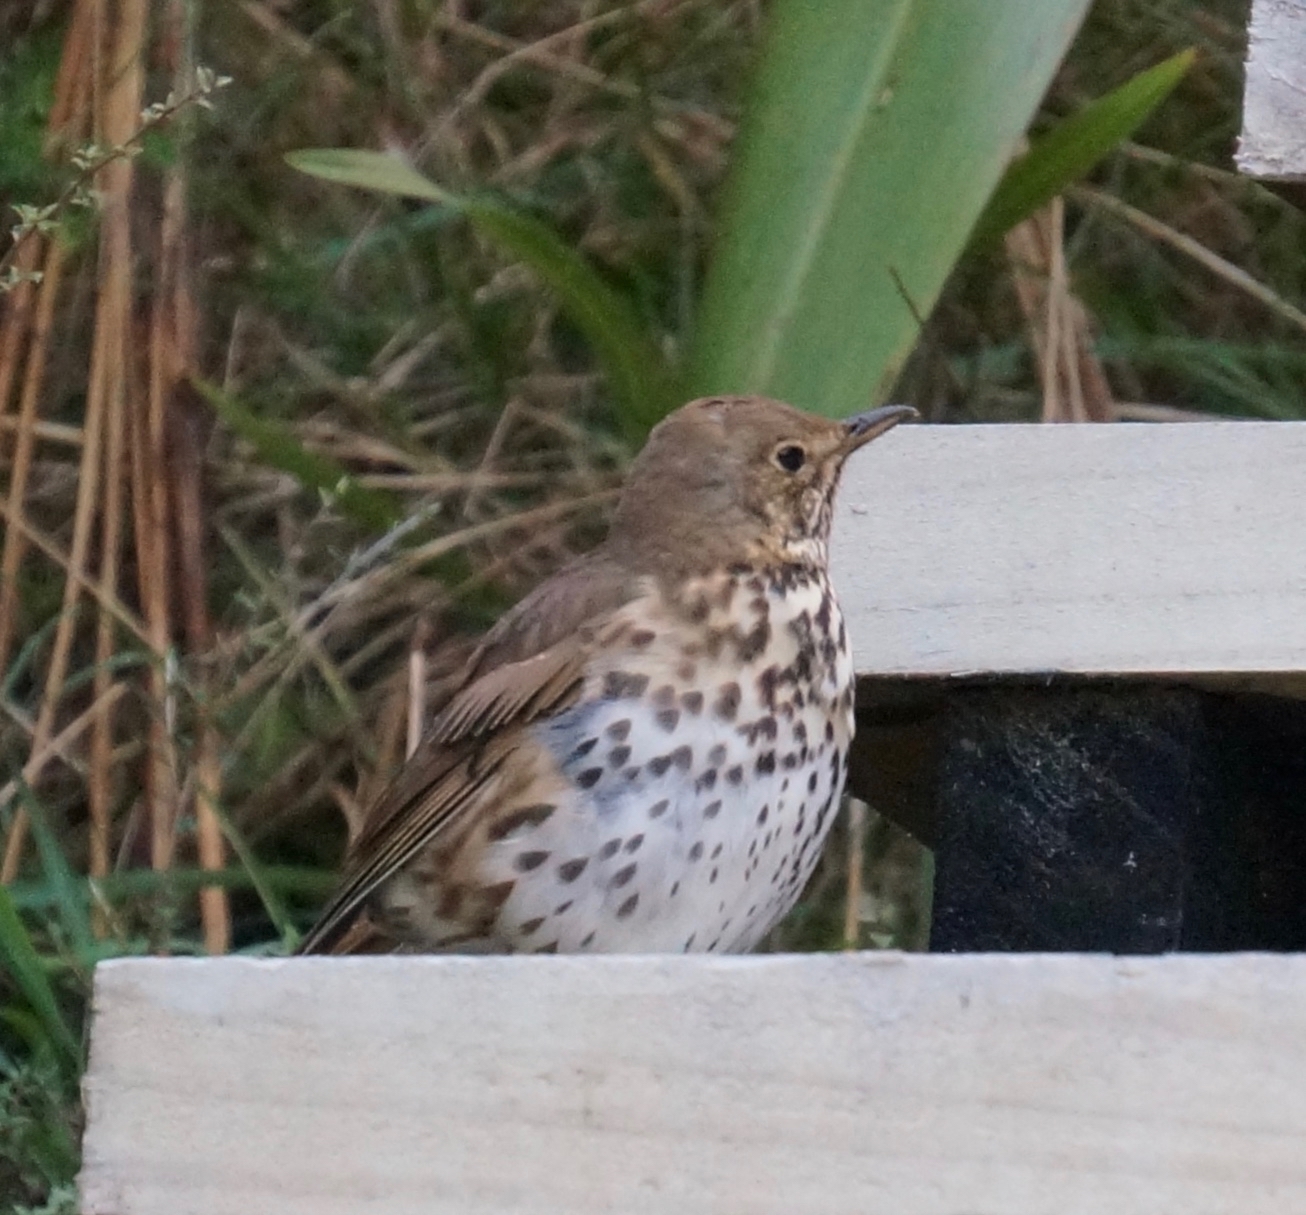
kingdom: Animalia
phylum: Chordata
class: Aves
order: Passeriformes
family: Turdidae
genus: Turdus
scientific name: Turdus philomelos
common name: Song thrush
